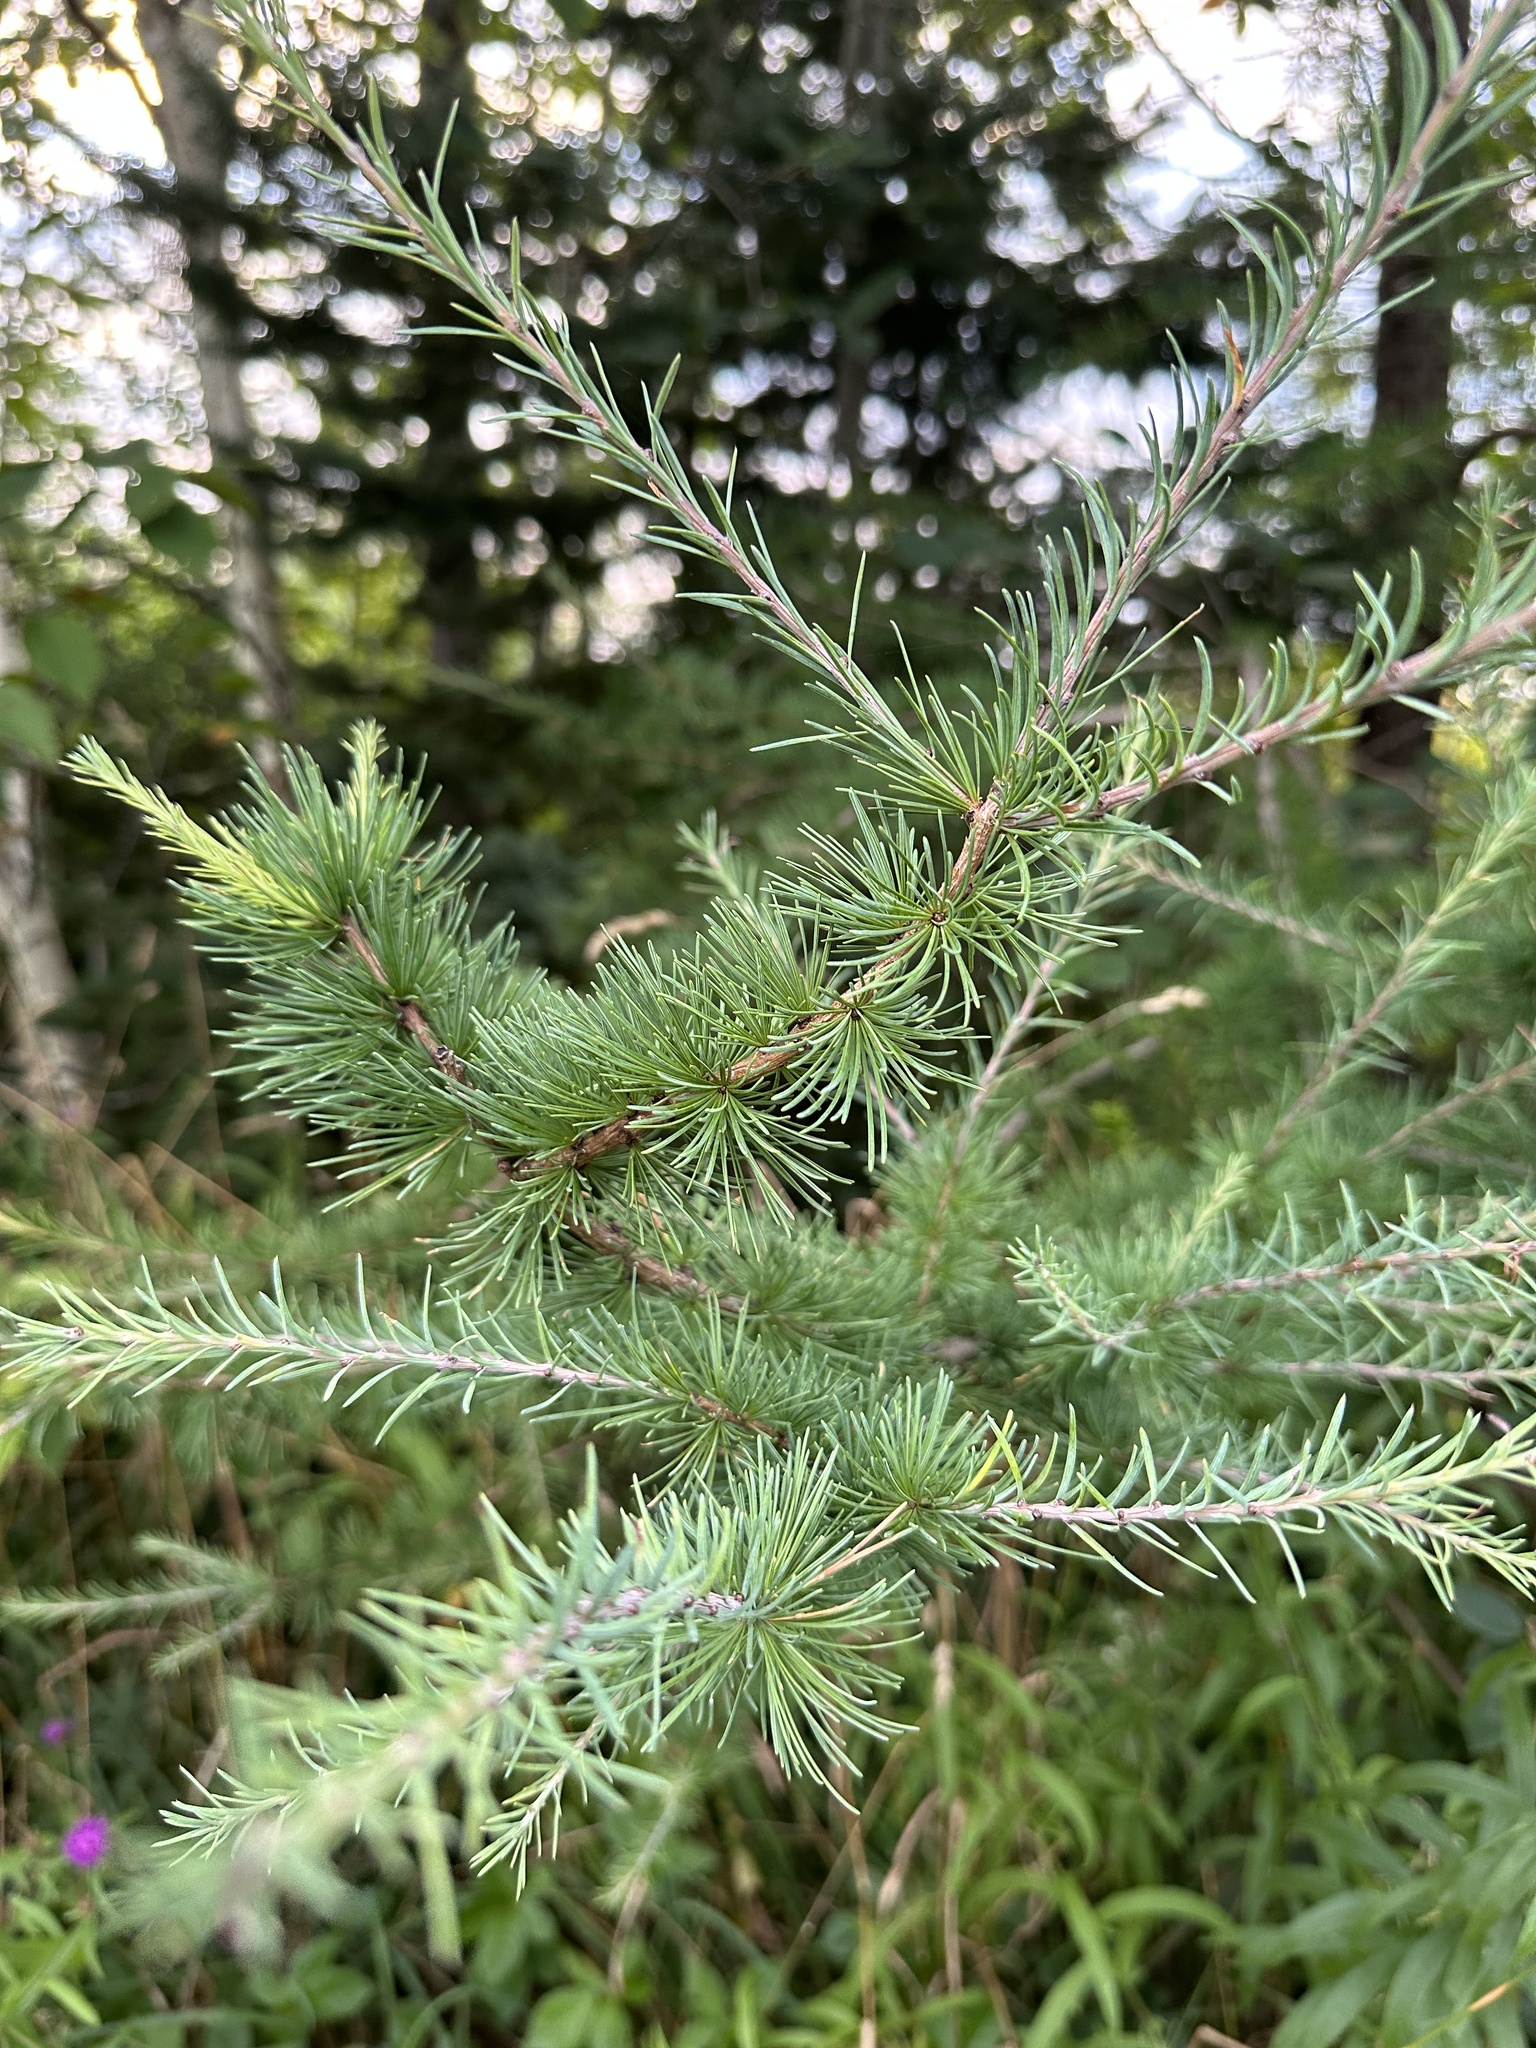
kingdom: Plantae
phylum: Tracheophyta
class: Pinopsida
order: Pinales
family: Pinaceae
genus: Larix
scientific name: Larix laricina
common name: American larch
